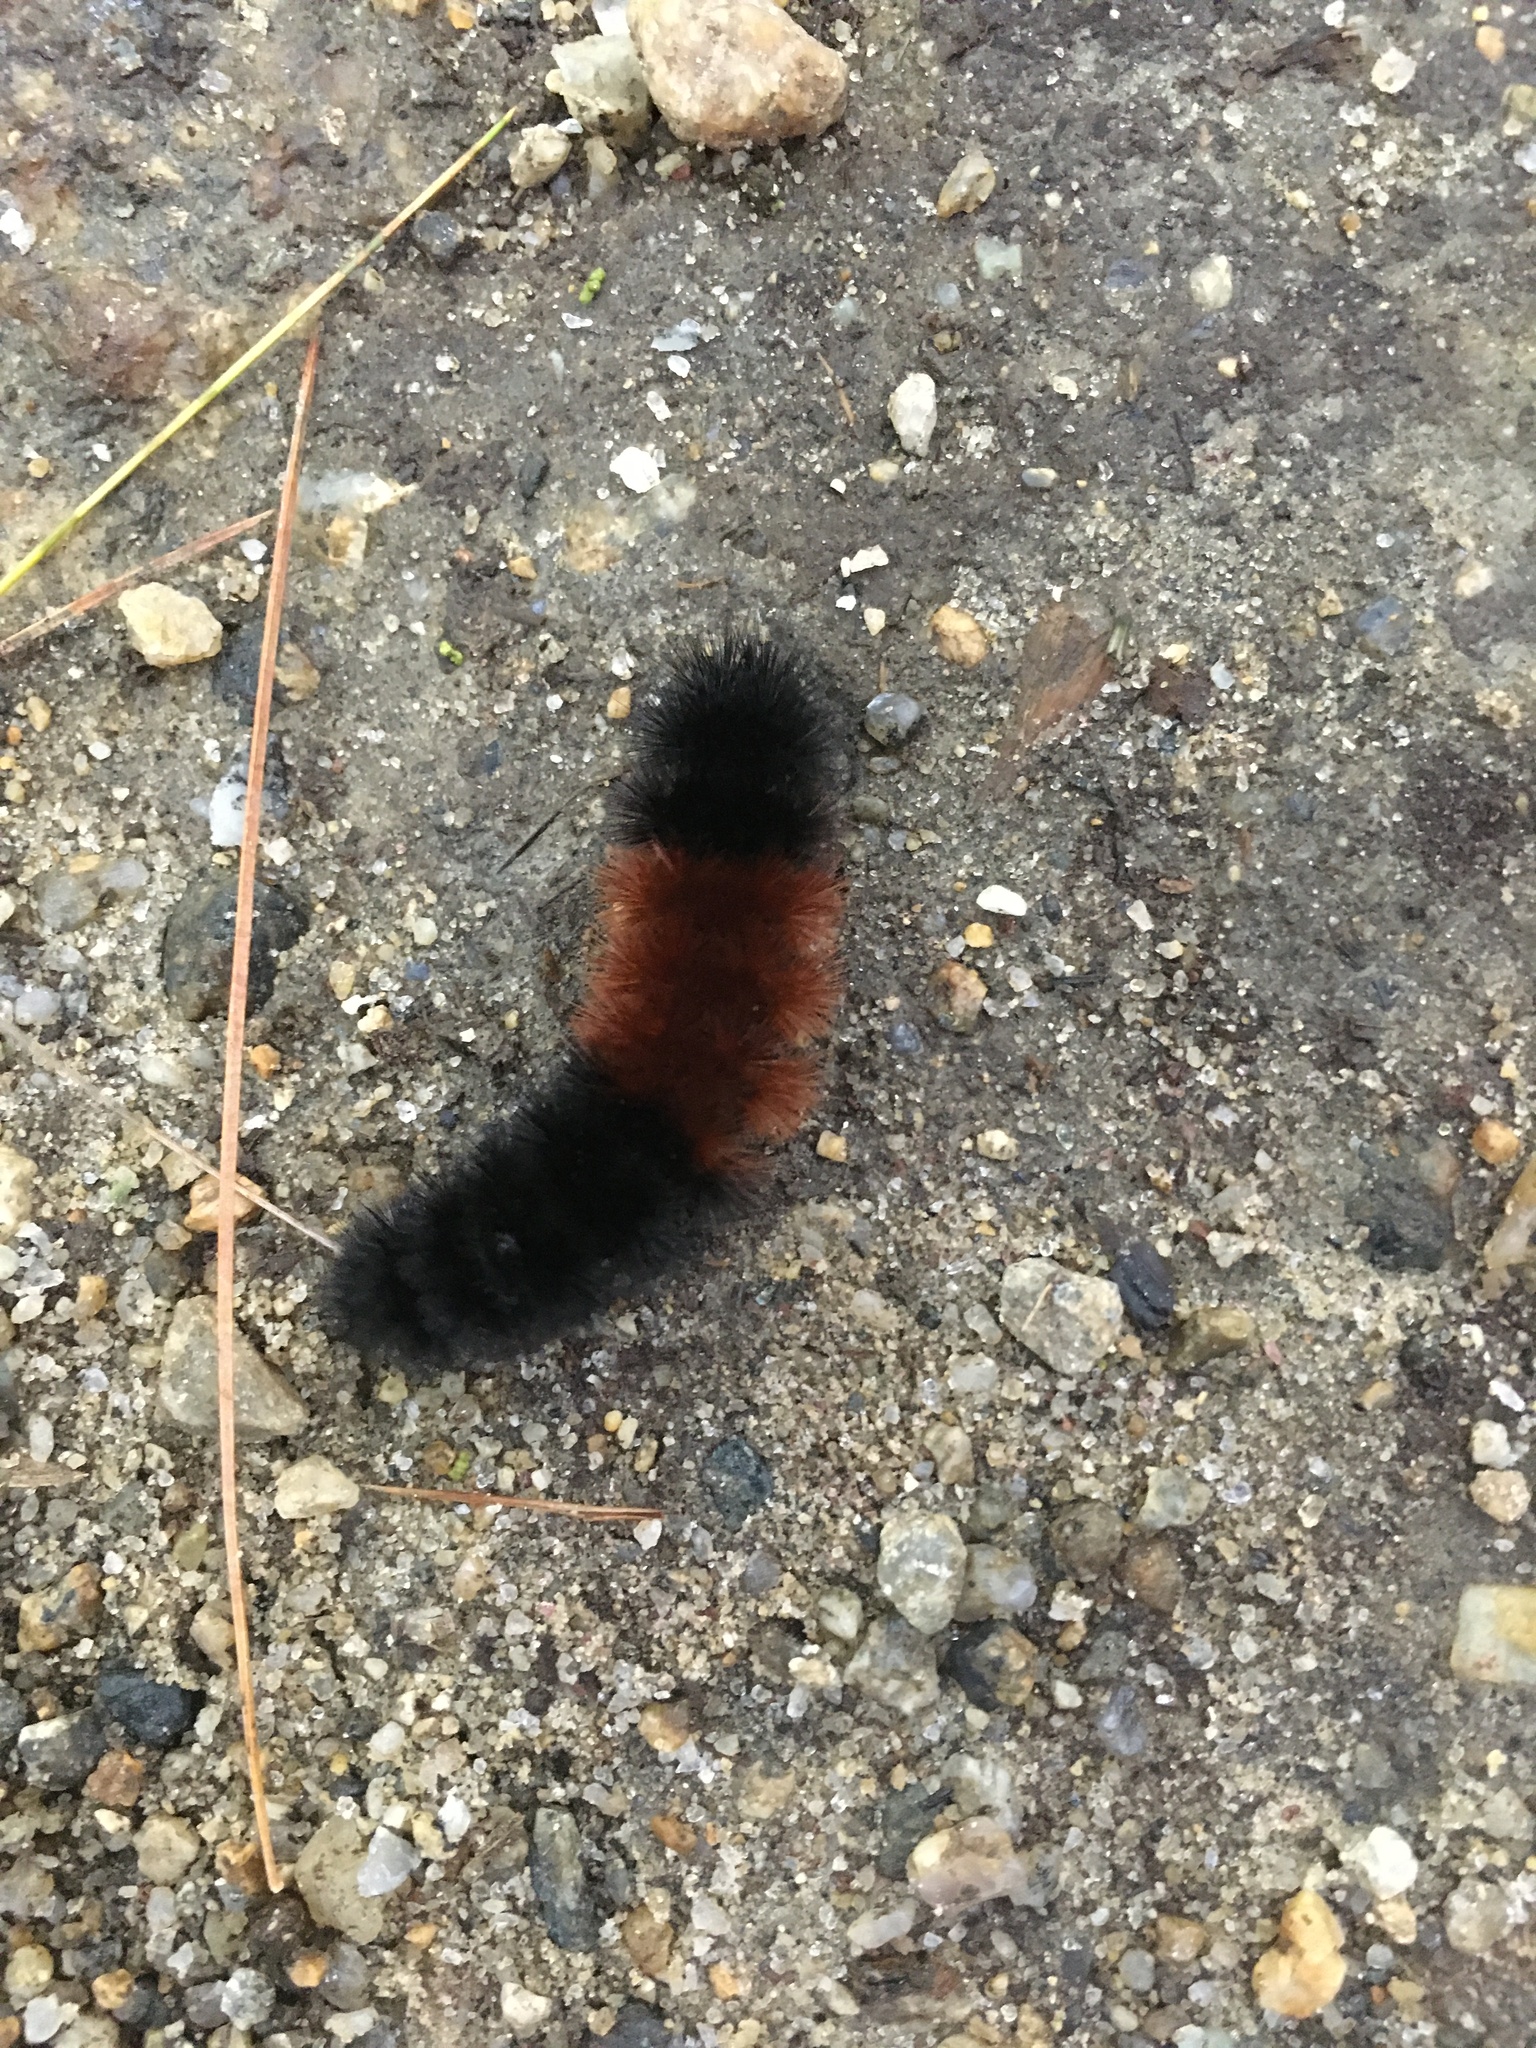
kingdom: Animalia
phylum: Arthropoda
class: Insecta
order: Lepidoptera
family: Erebidae
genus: Pyrrharctia
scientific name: Pyrrharctia isabella
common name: Isabella tiger moth
